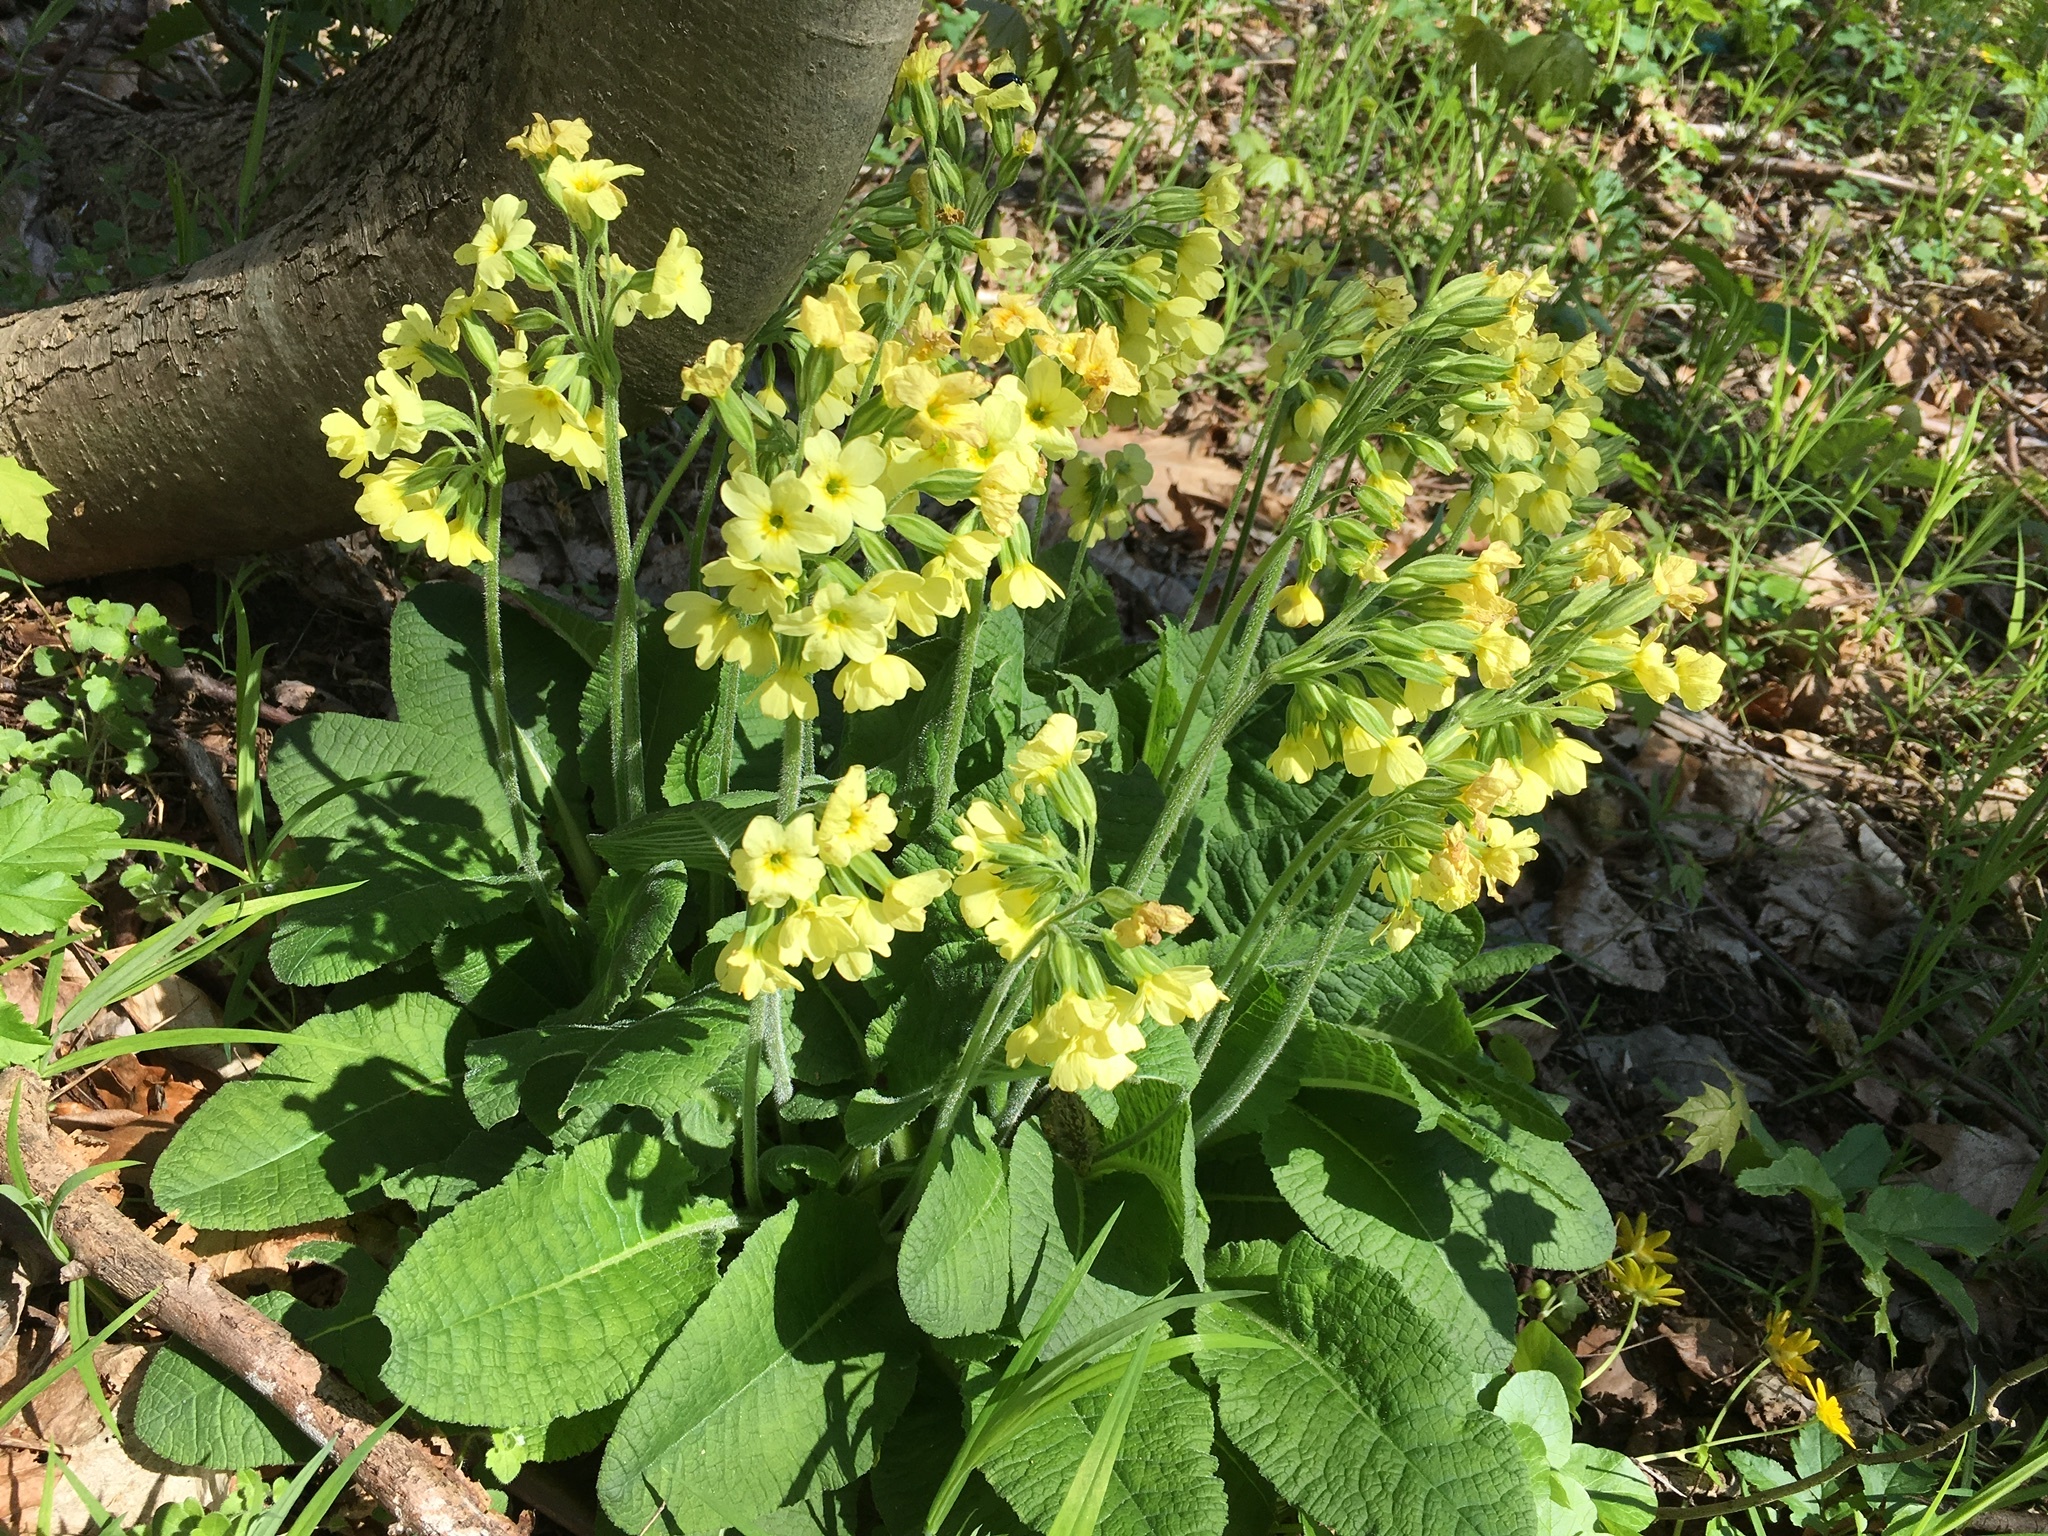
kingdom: Plantae
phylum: Tracheophyta
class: Magnoliopsida
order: Ericales
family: Primulaceae
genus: Primula
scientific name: Primula elatior
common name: Oxlip
